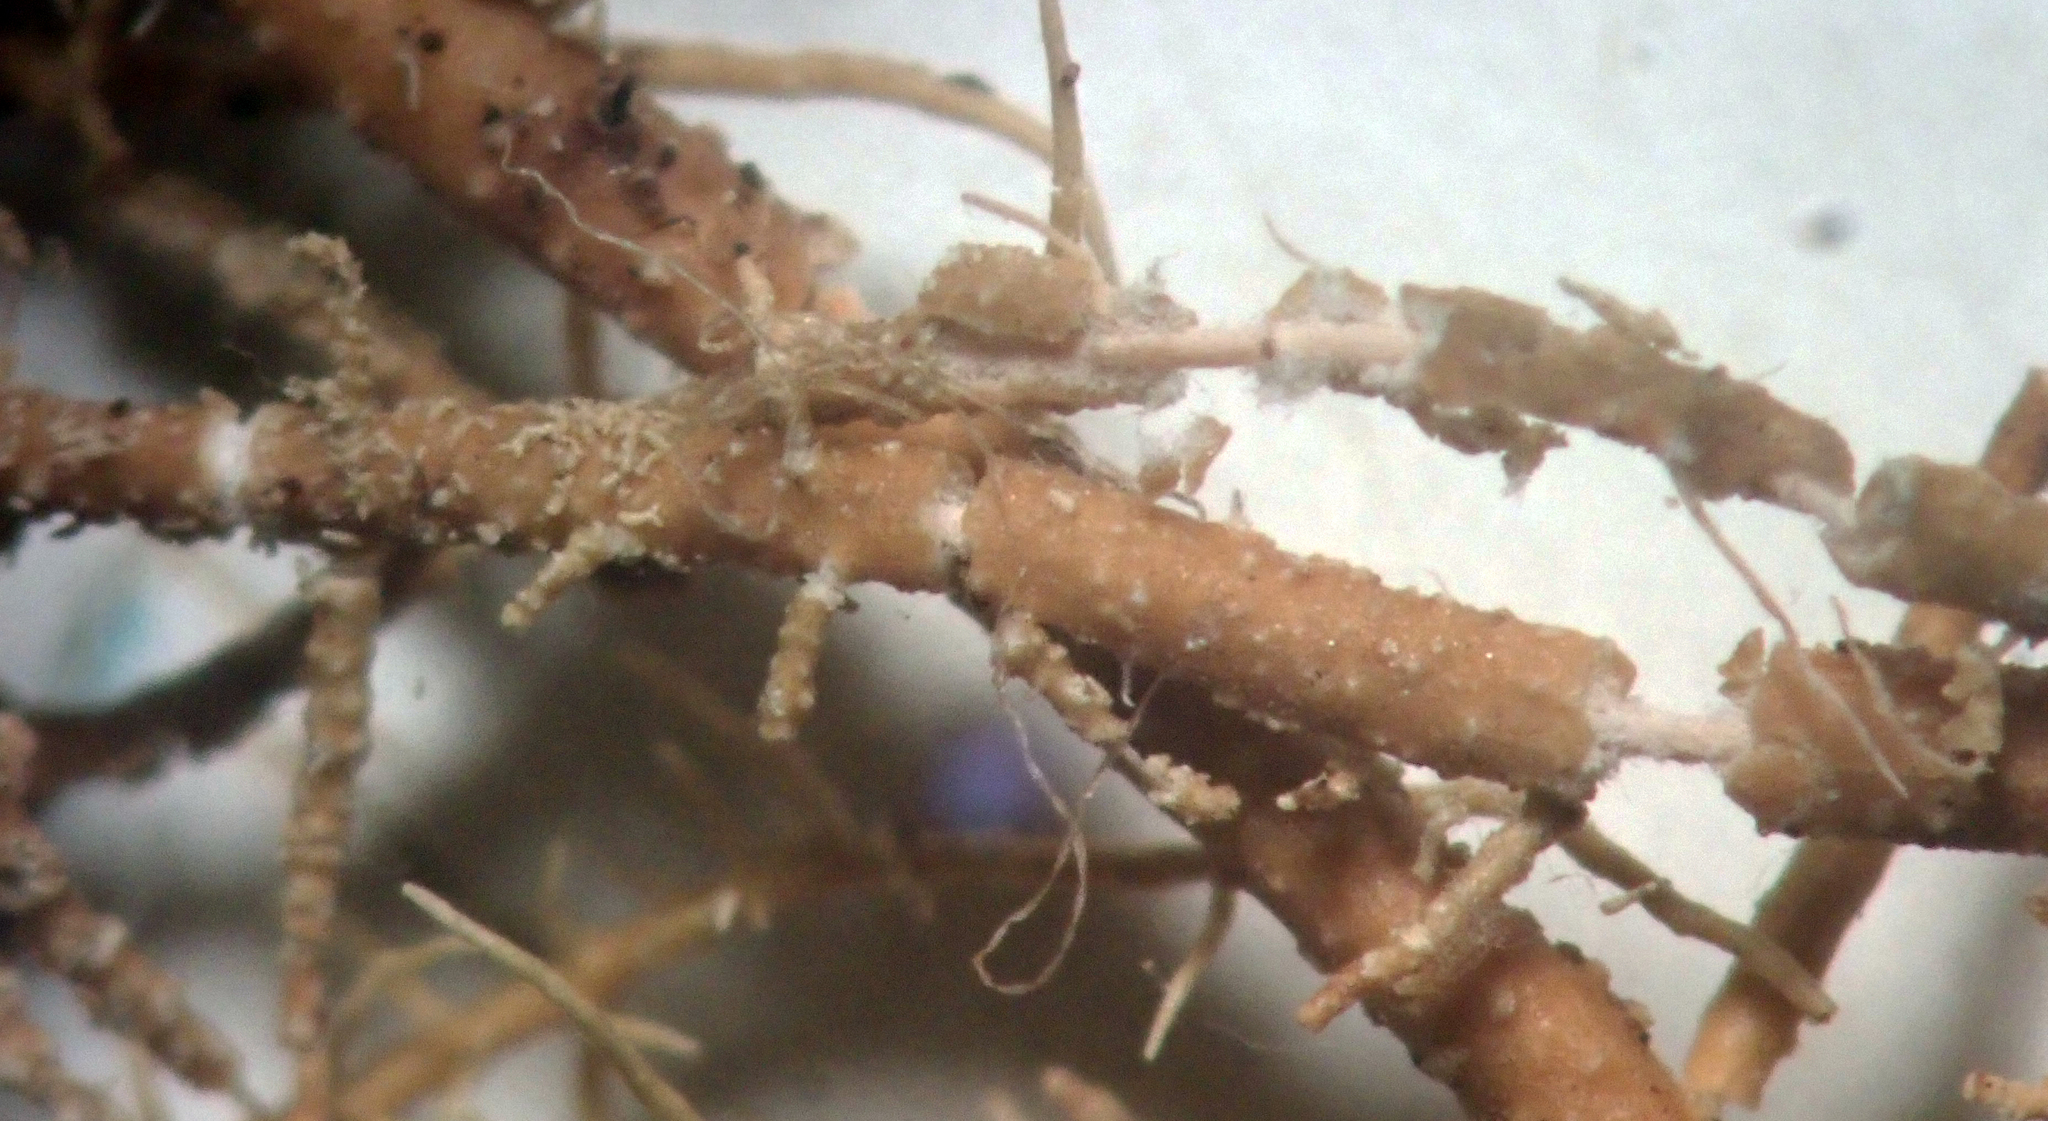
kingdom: Fungi
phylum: Ascomycota
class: Lecanoromycetes
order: Lecanorales
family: Parmeliaceae
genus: Usnea
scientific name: Usnea rubicunda
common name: Red beard lichen
